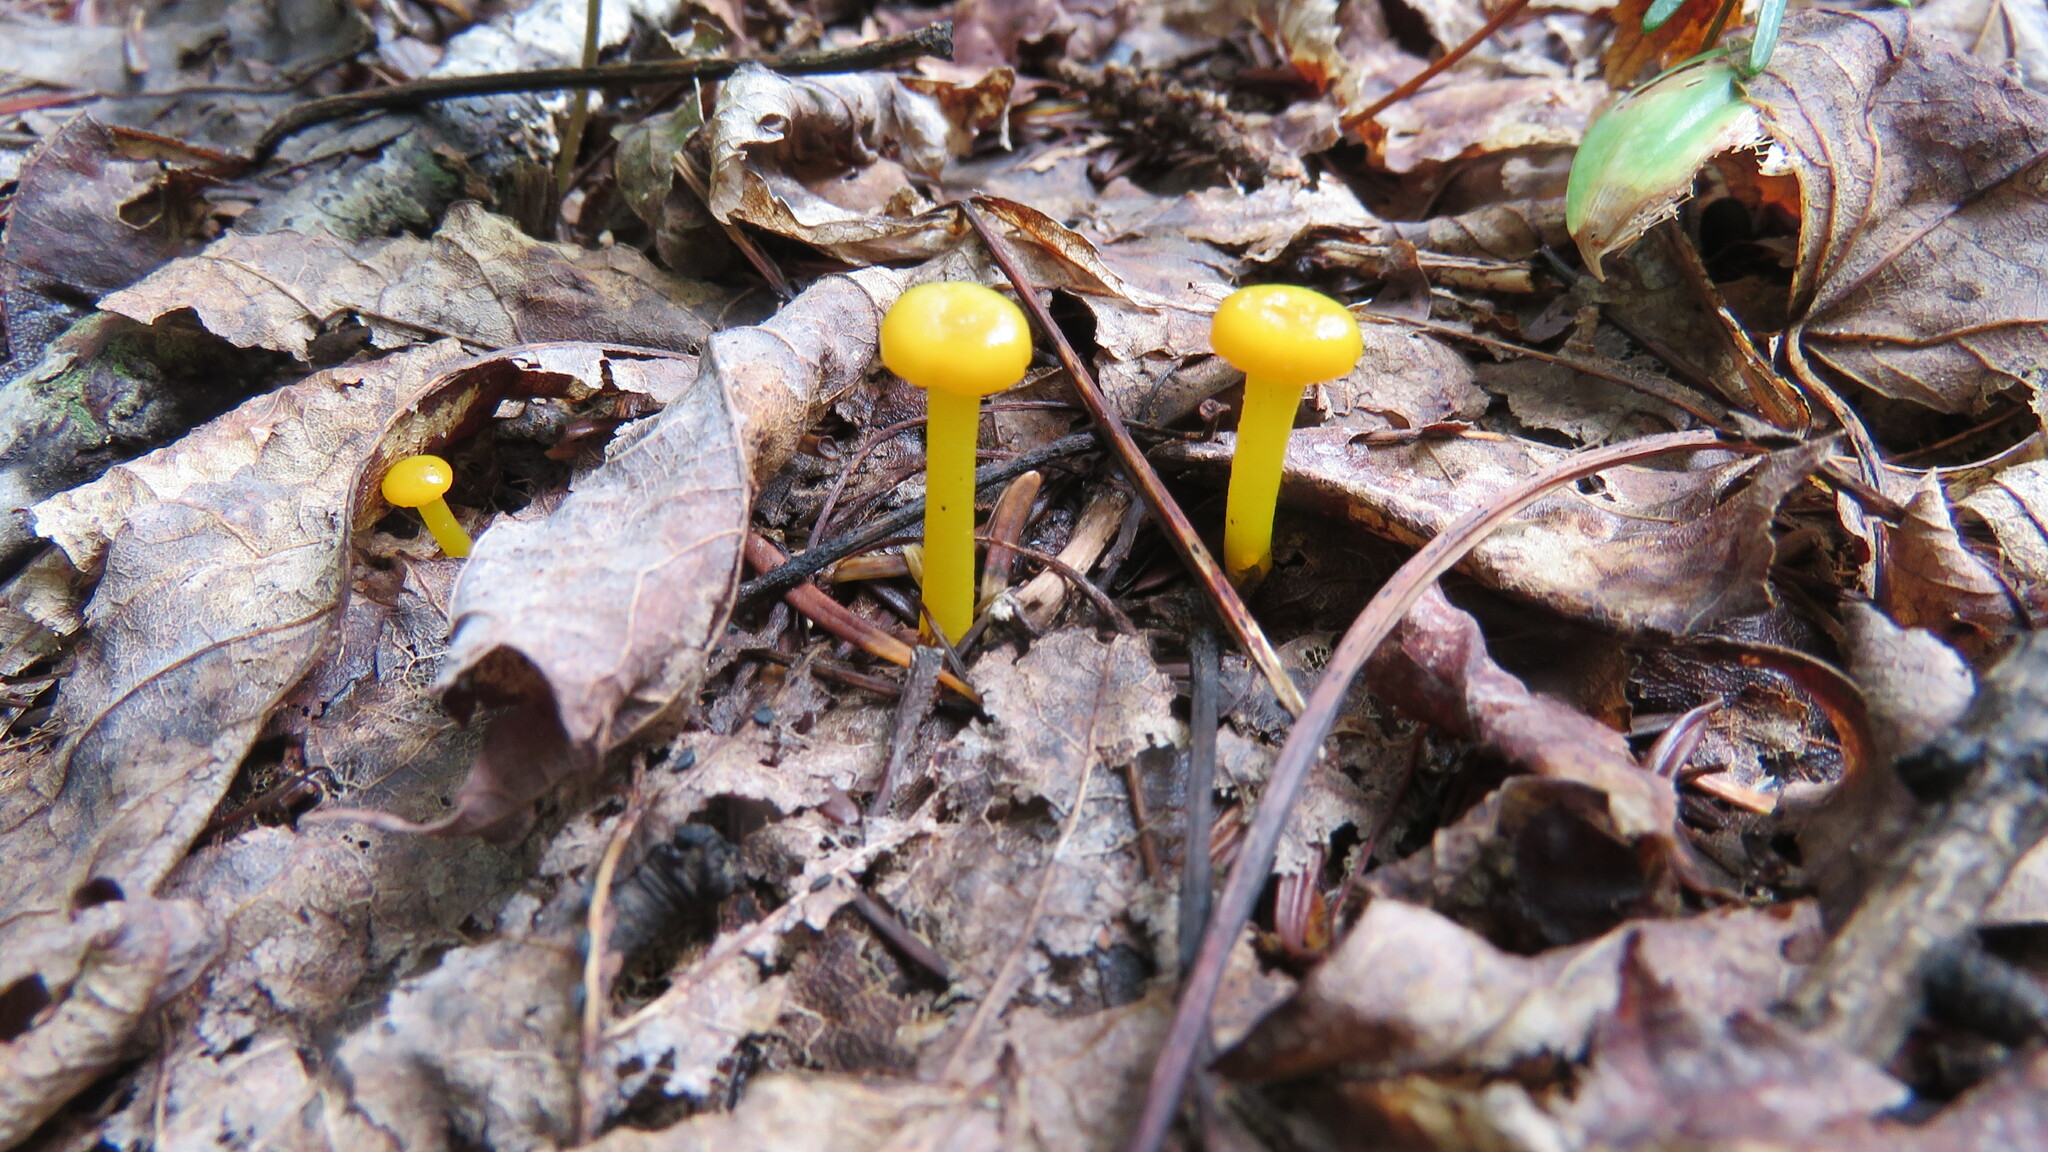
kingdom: Fungi
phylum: Basidiomycota
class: Agaricomycetes
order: Agaricales
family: Hygrophoraceae
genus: Gloioxanthomyces
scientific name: Gloioxanthomyces nitidus
